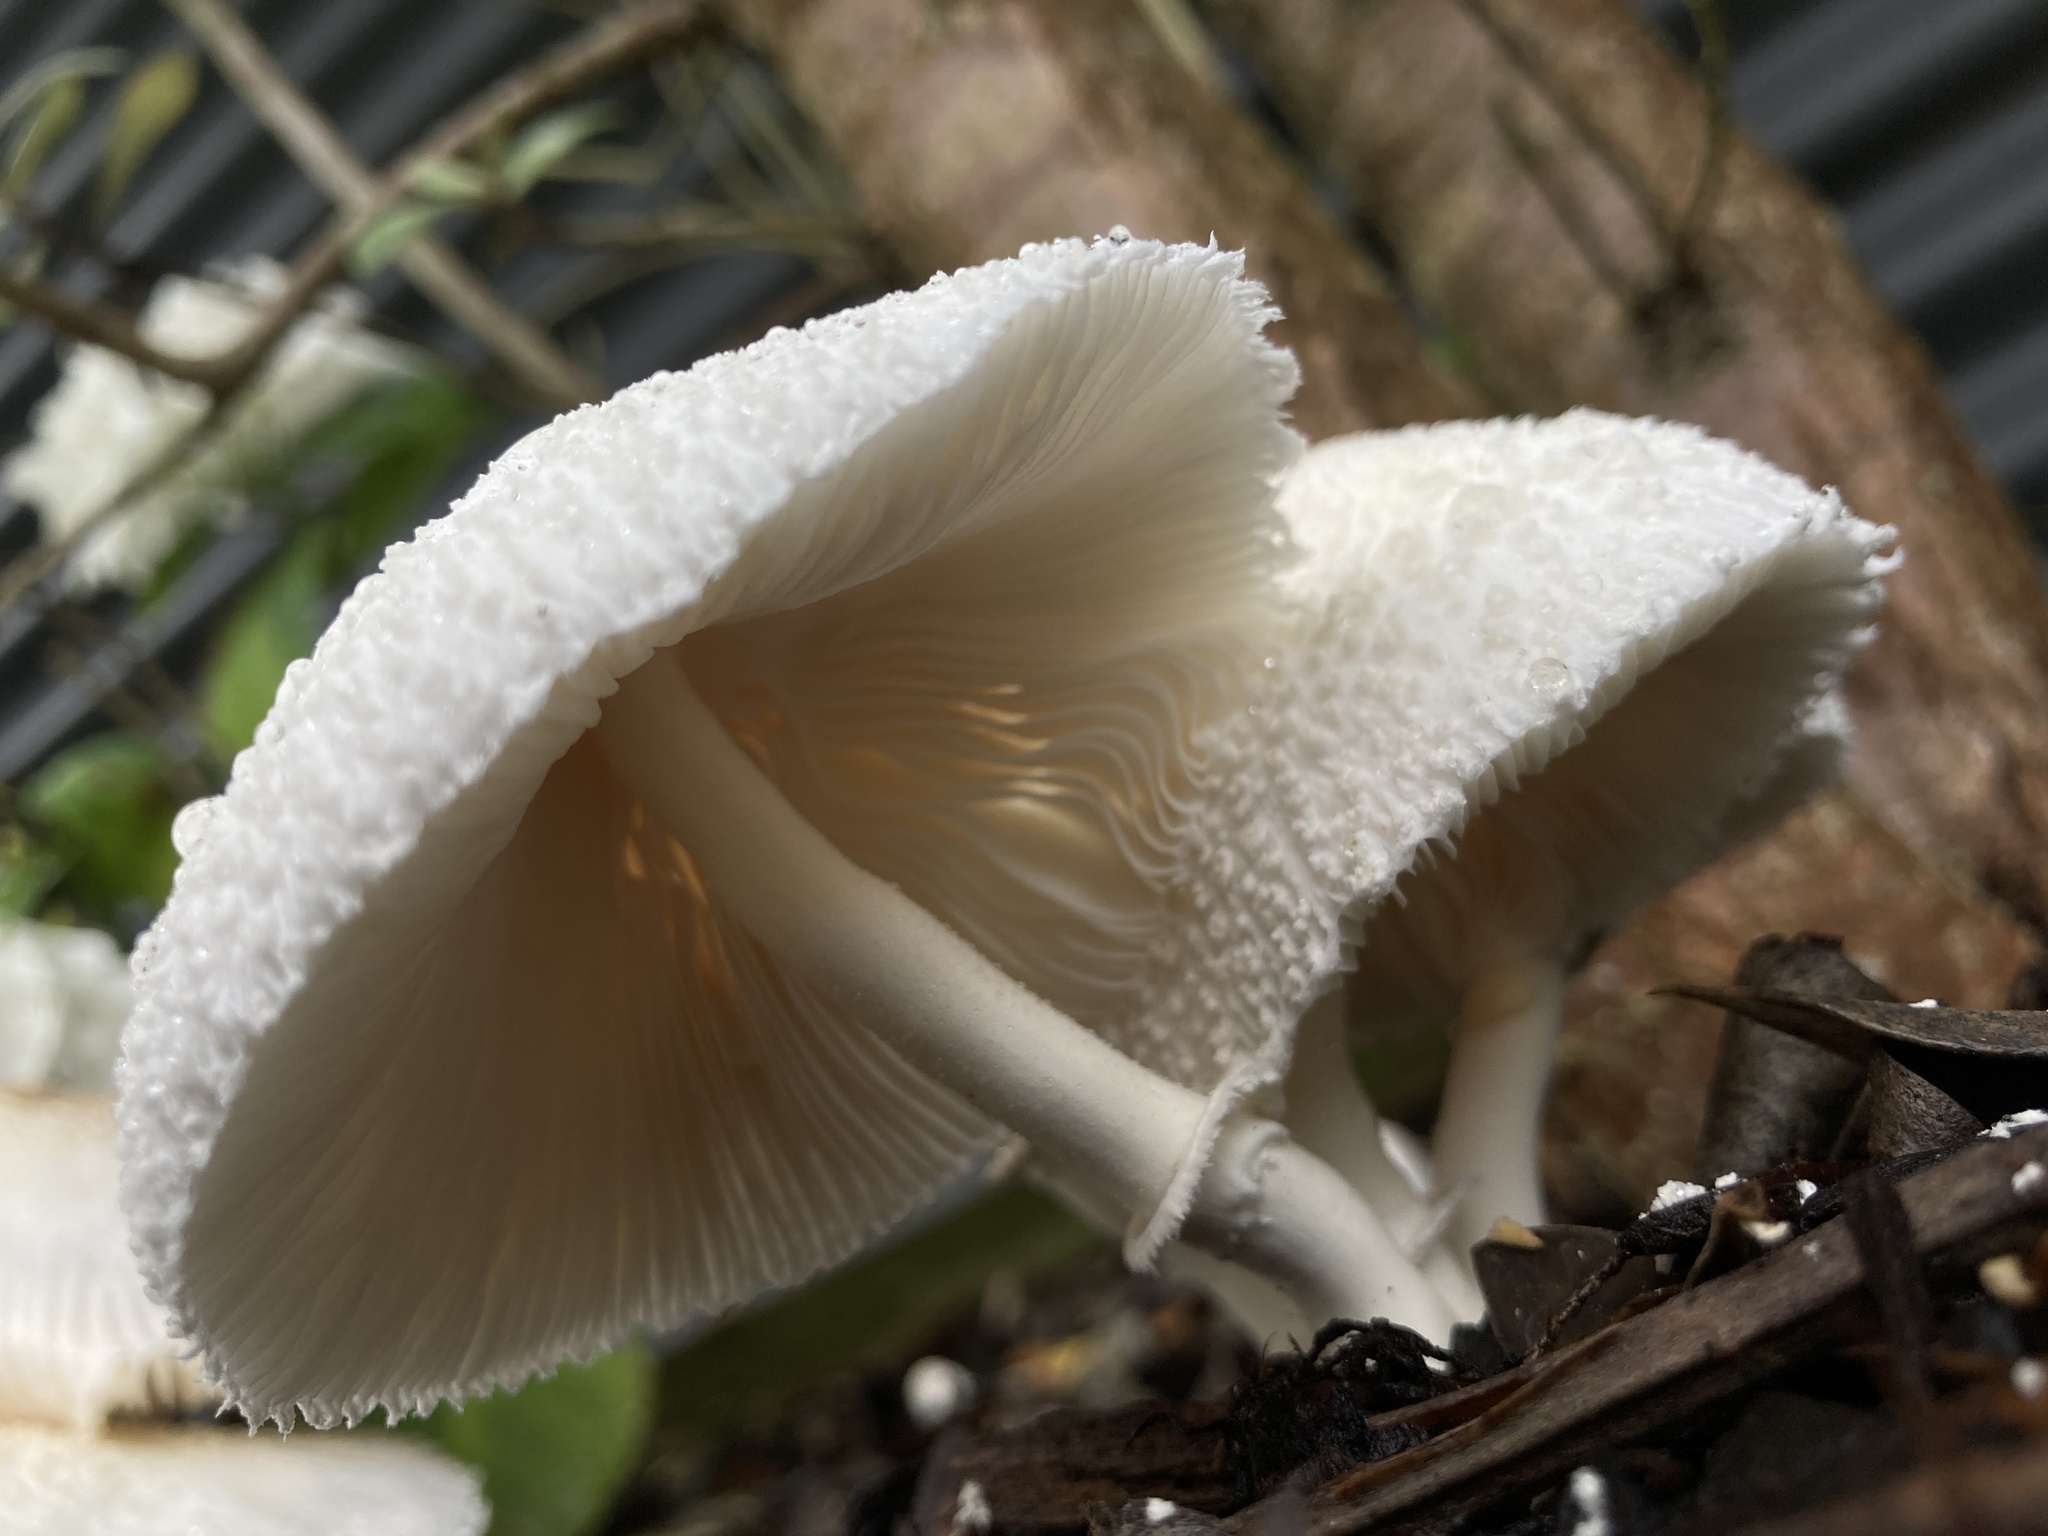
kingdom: Fungi
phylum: Basidiomycota
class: Agaricomycetes
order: Agaricales
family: Agaricaceae
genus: Leucocoprinus
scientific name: Leucocoprinus cepistipes
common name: Onion-stalk parasol
